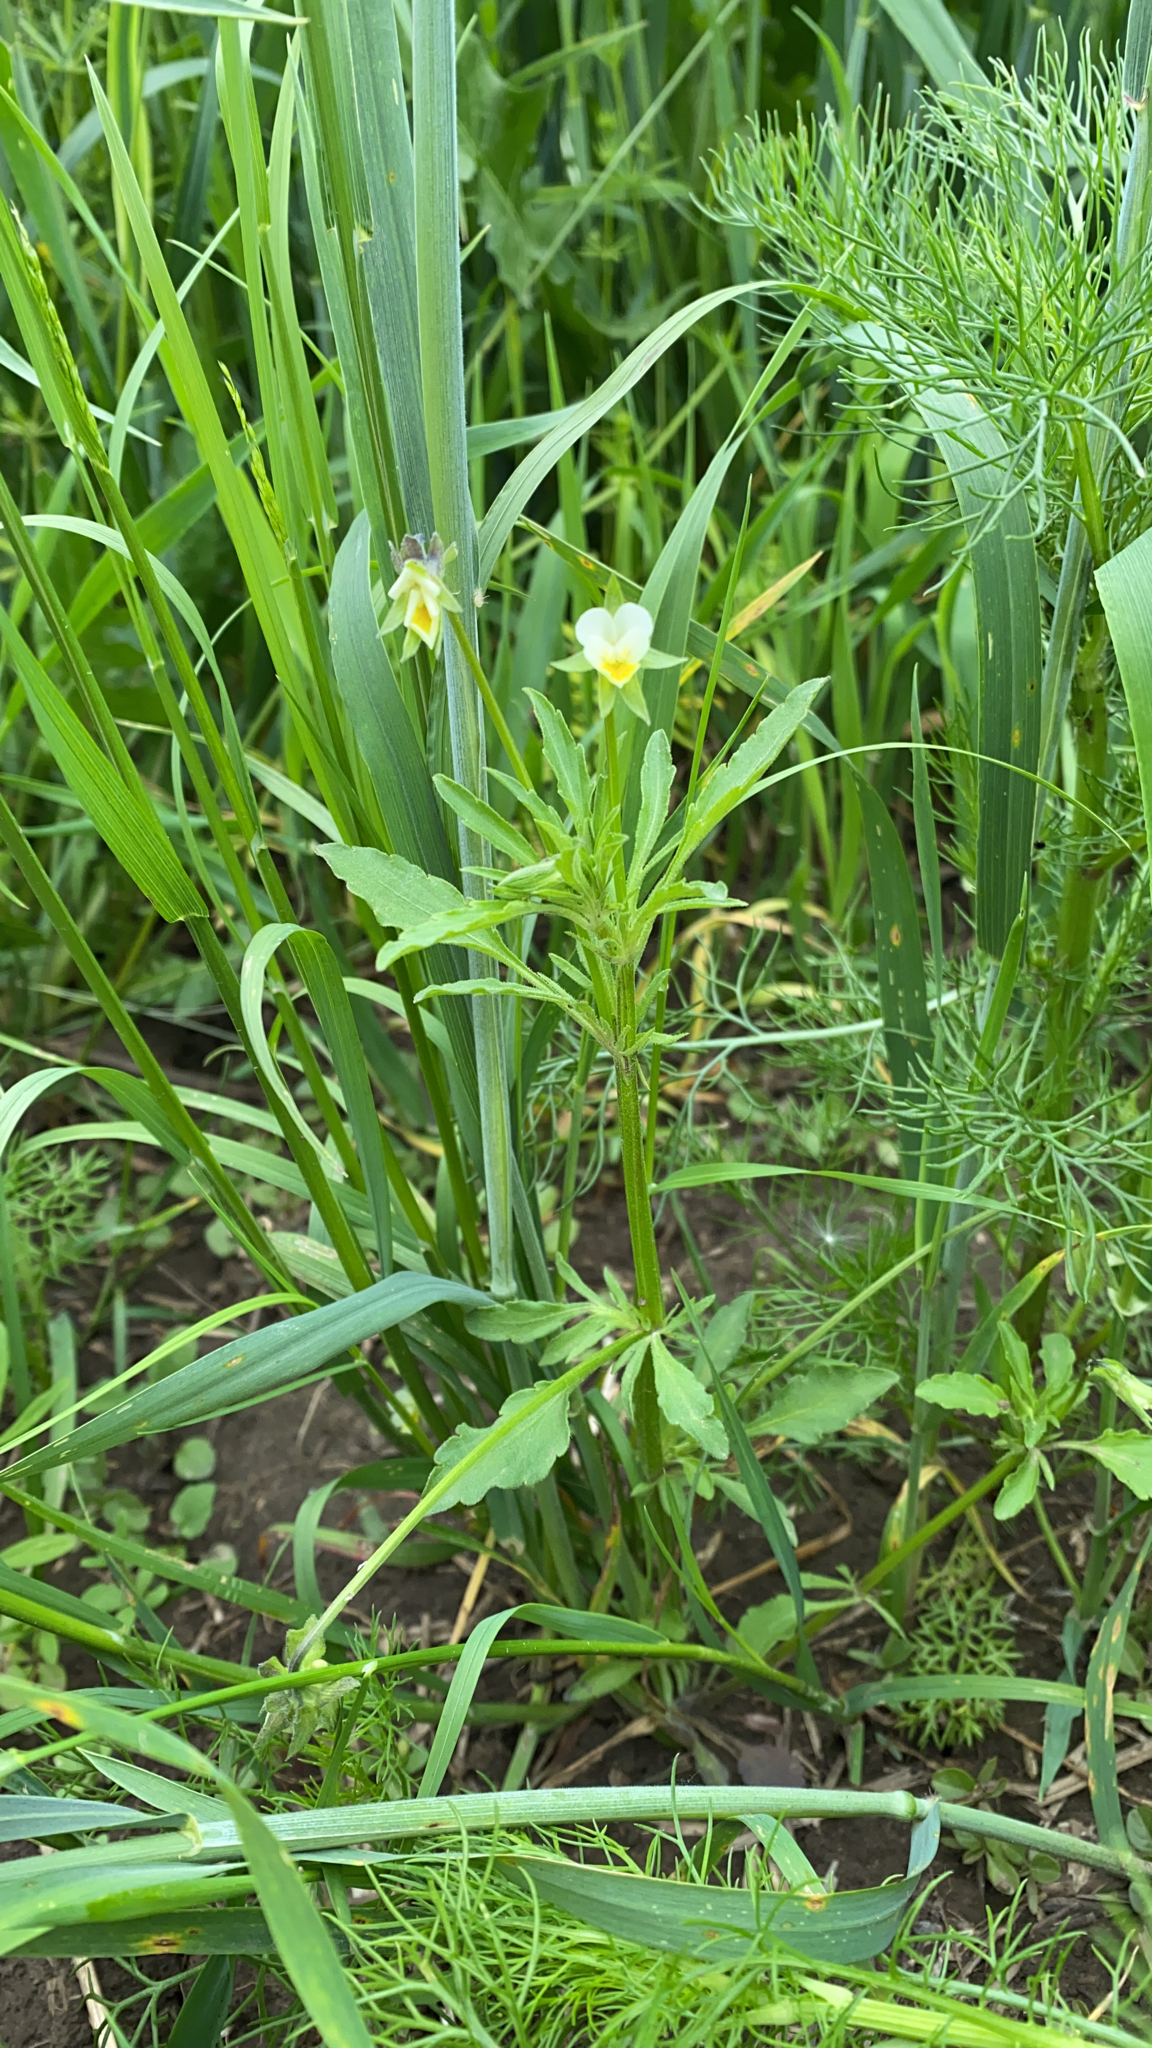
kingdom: Plantae
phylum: Tracheophyta
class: Magnoliopsida
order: Malpighiales
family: Violaceae
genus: Viola
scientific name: Viola arvensis
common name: Field pansy
